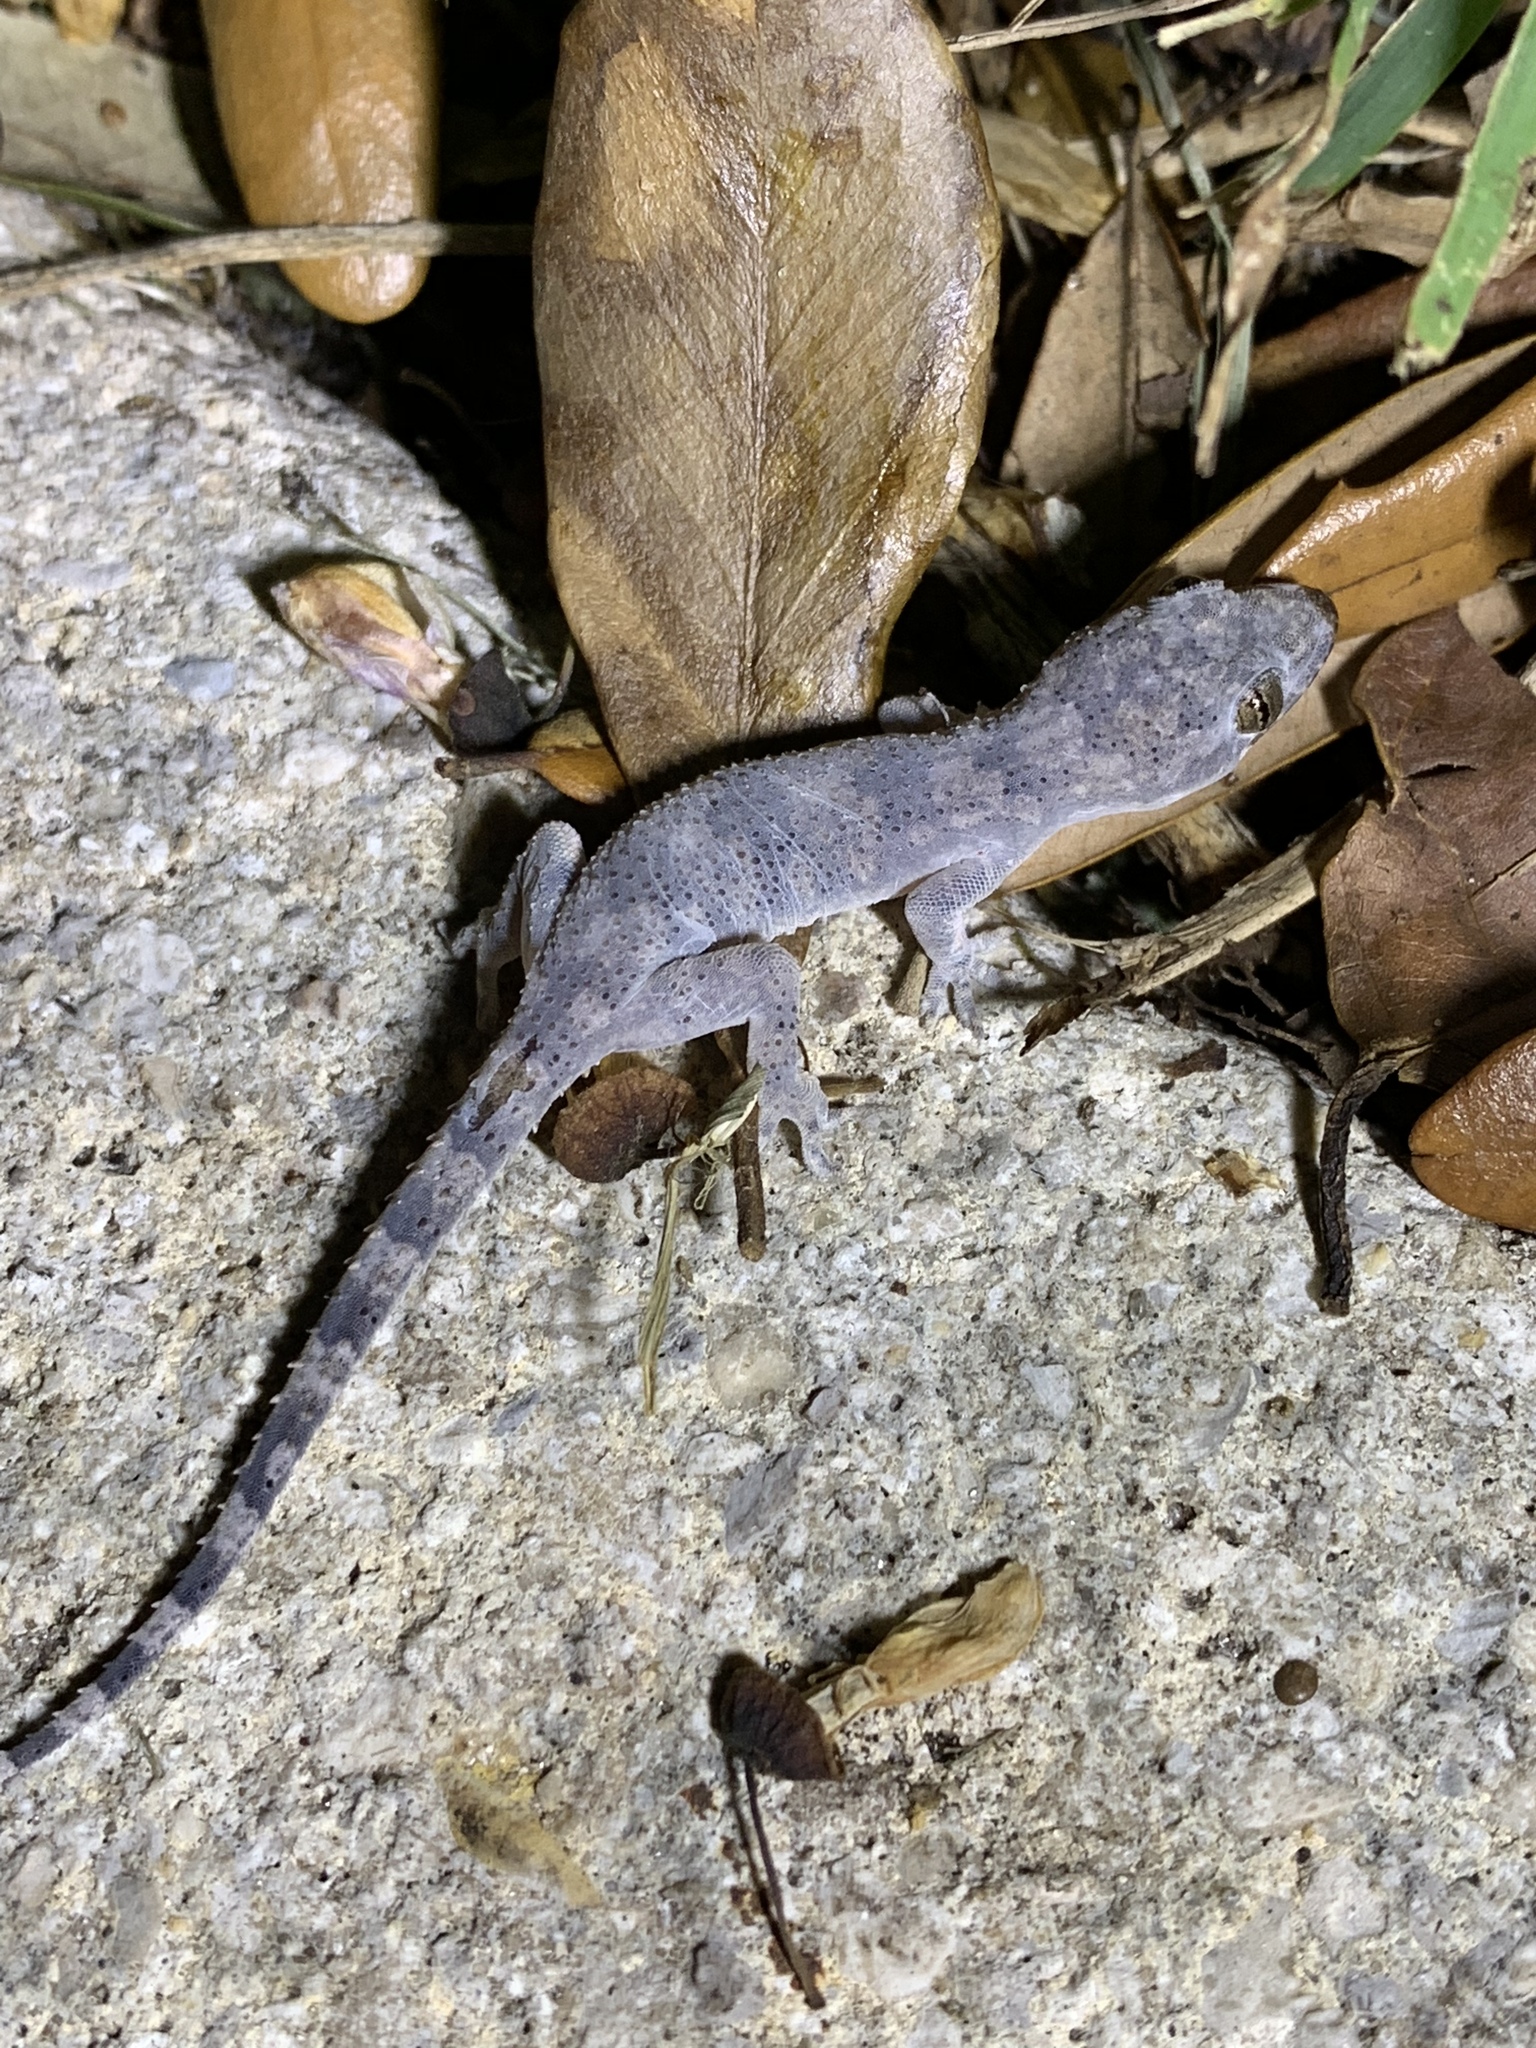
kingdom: Animalia
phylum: Chordata
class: Squamata
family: Gekkonidae
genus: Hemidactylus
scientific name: Hemidactylus mabouia
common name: House gecko
